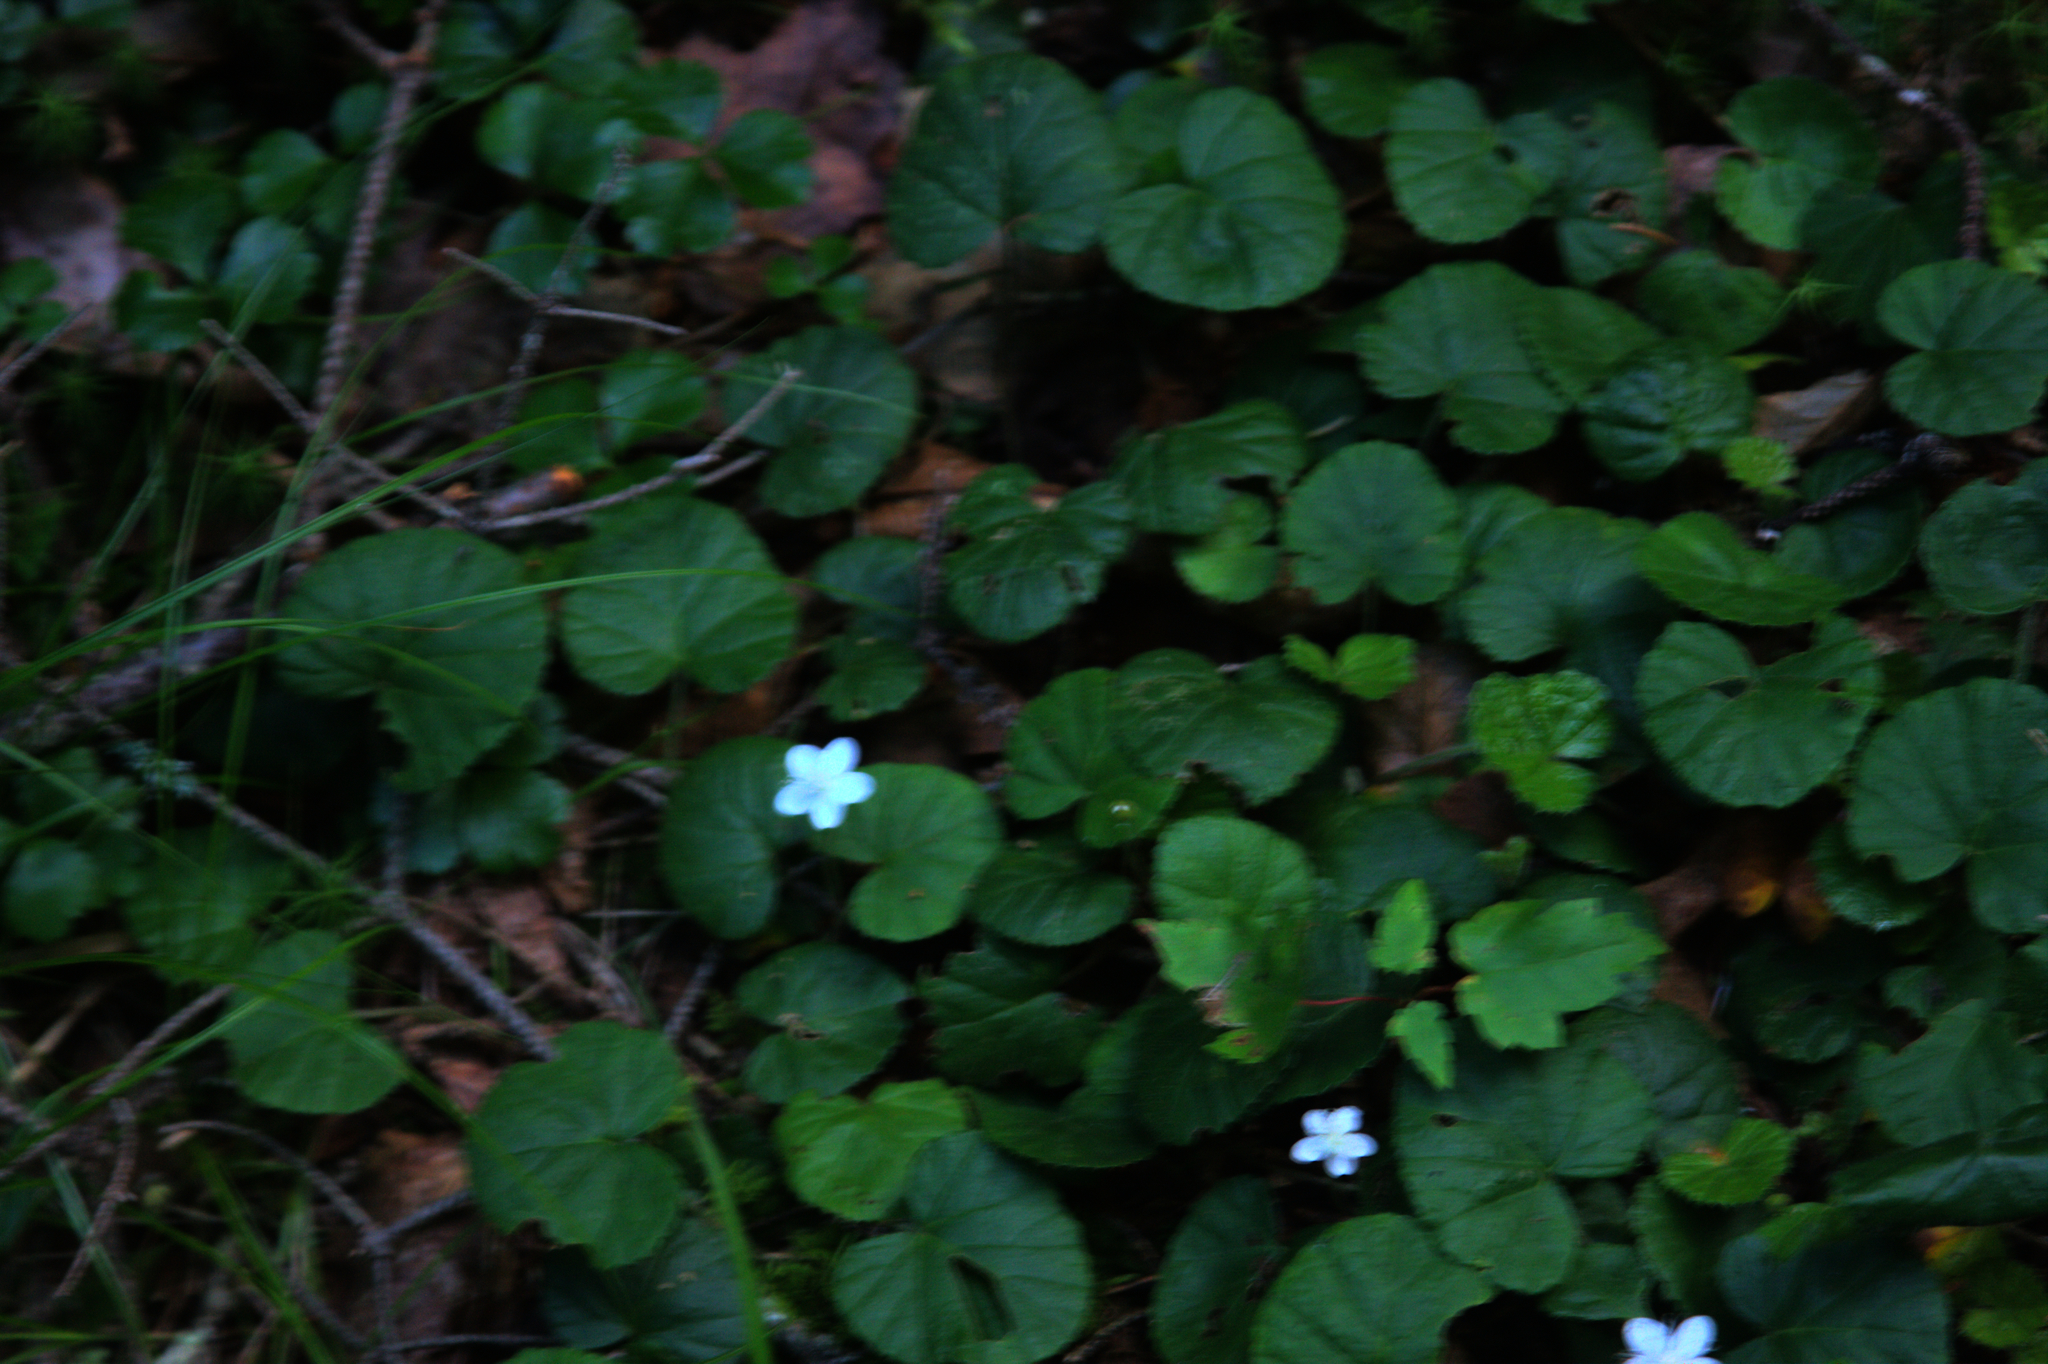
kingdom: Plantae
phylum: Tracheophyta
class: Magnoliopsida
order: Rosales
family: Rosaceae
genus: Dalibarda
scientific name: Dalibarda repens
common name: Dewdrop
